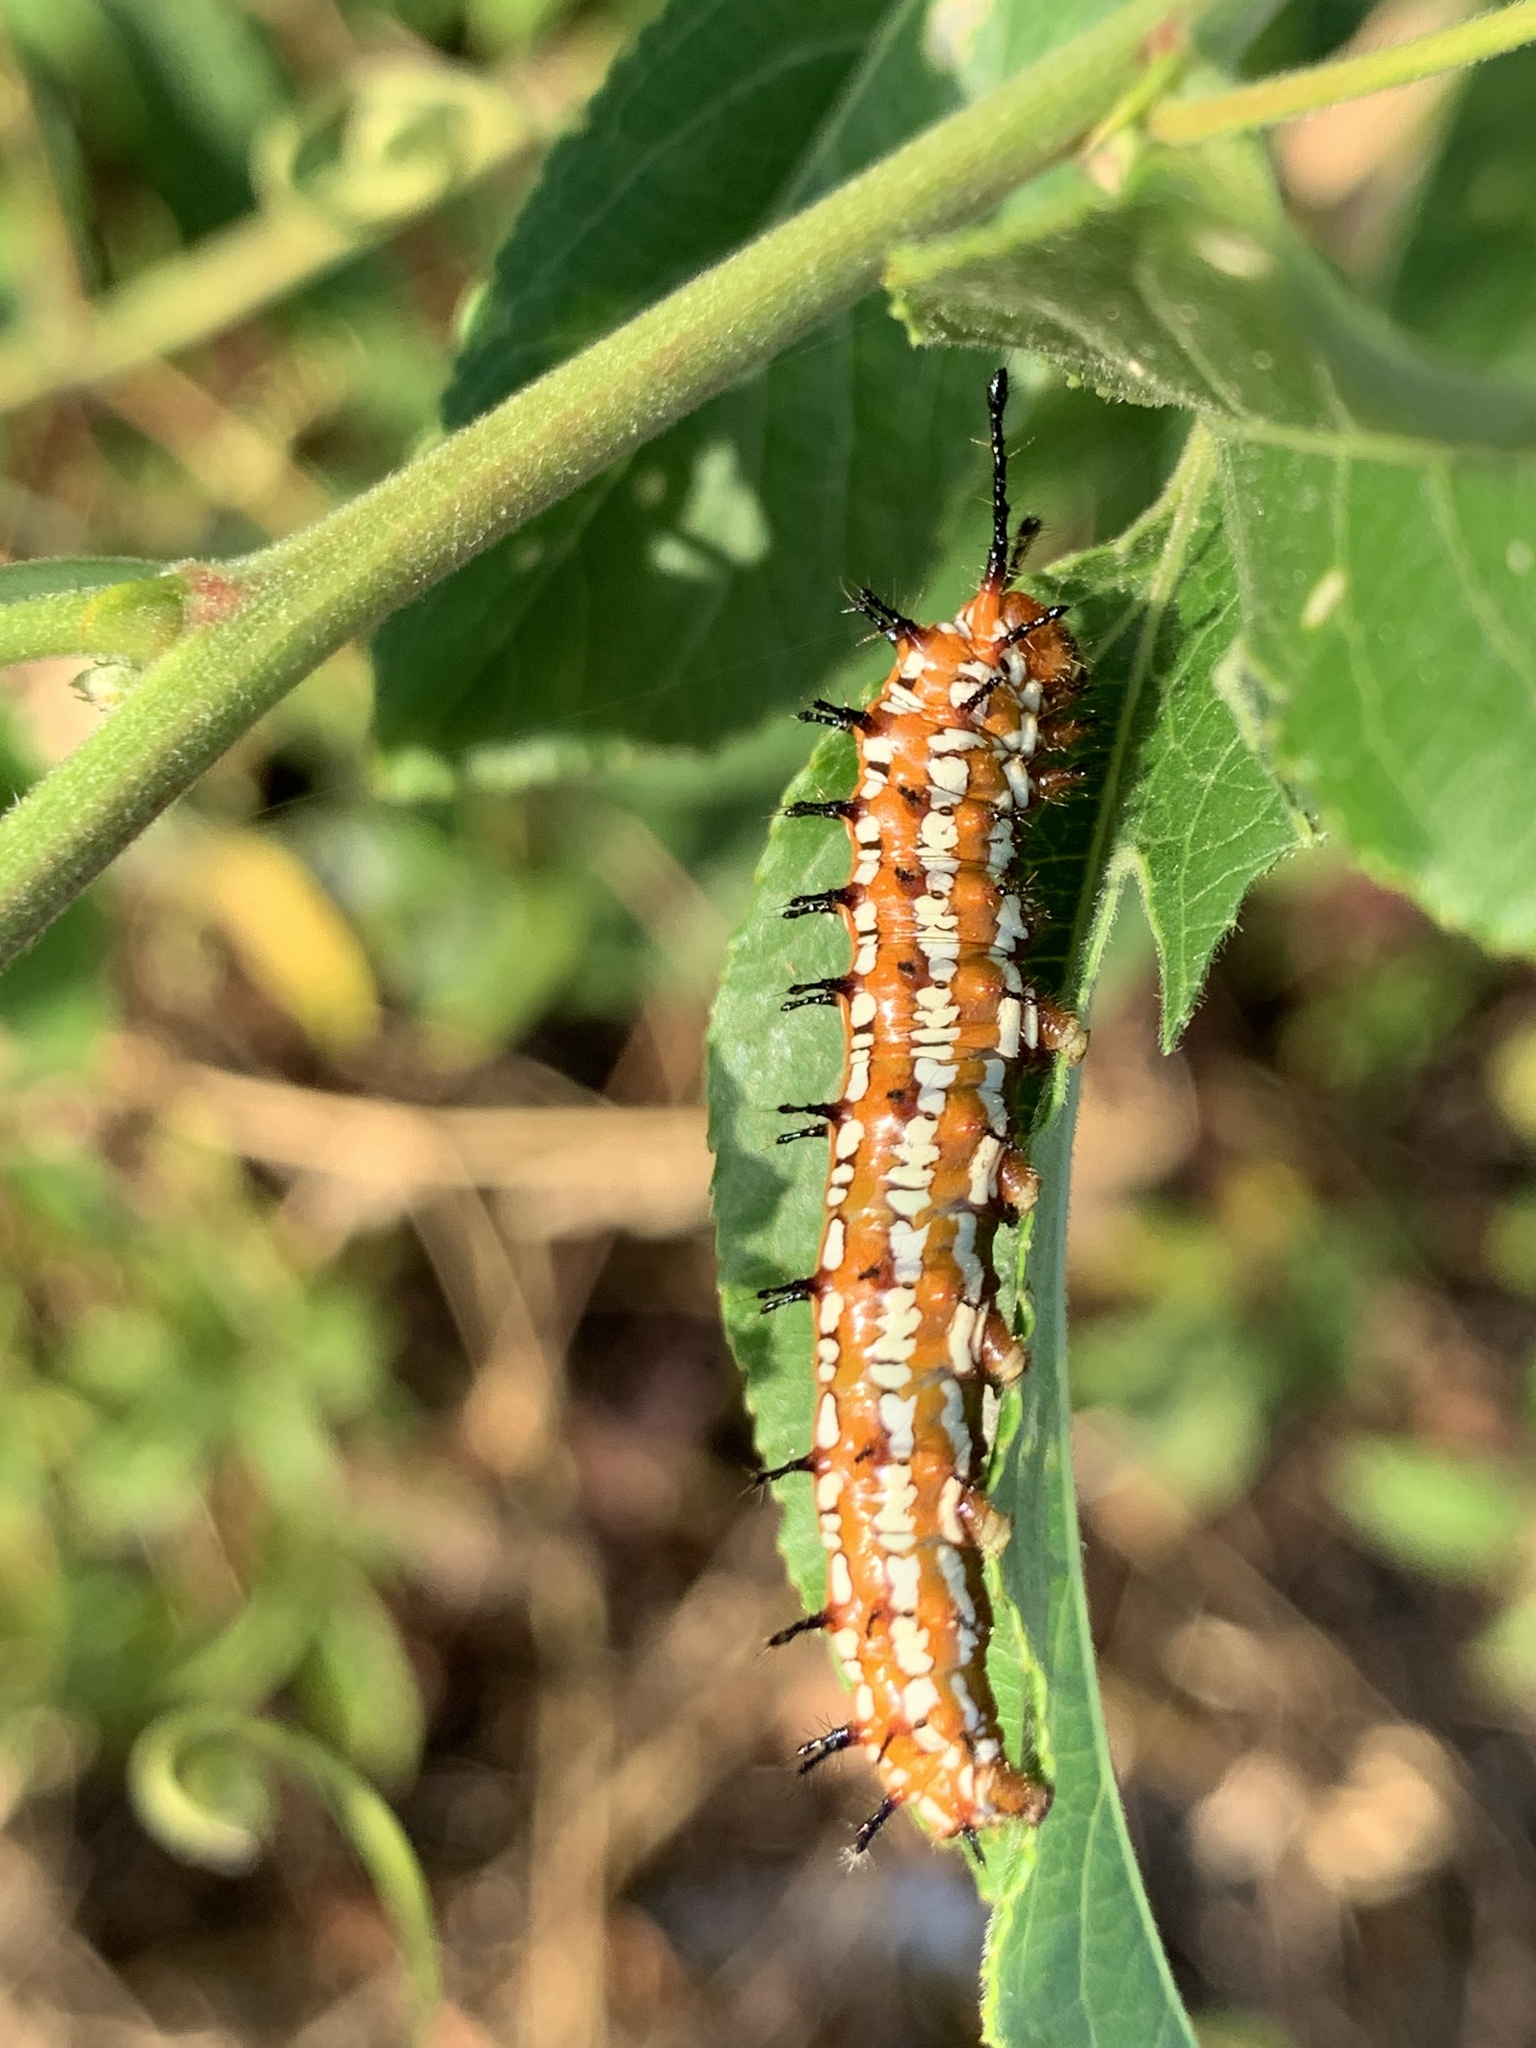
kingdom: Animalia
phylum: Arthropoda
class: Insecta
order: Lepidoptera
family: Nymphalidae
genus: Euptoieta
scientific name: Euptoieta claudia
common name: Variegated fritillary
